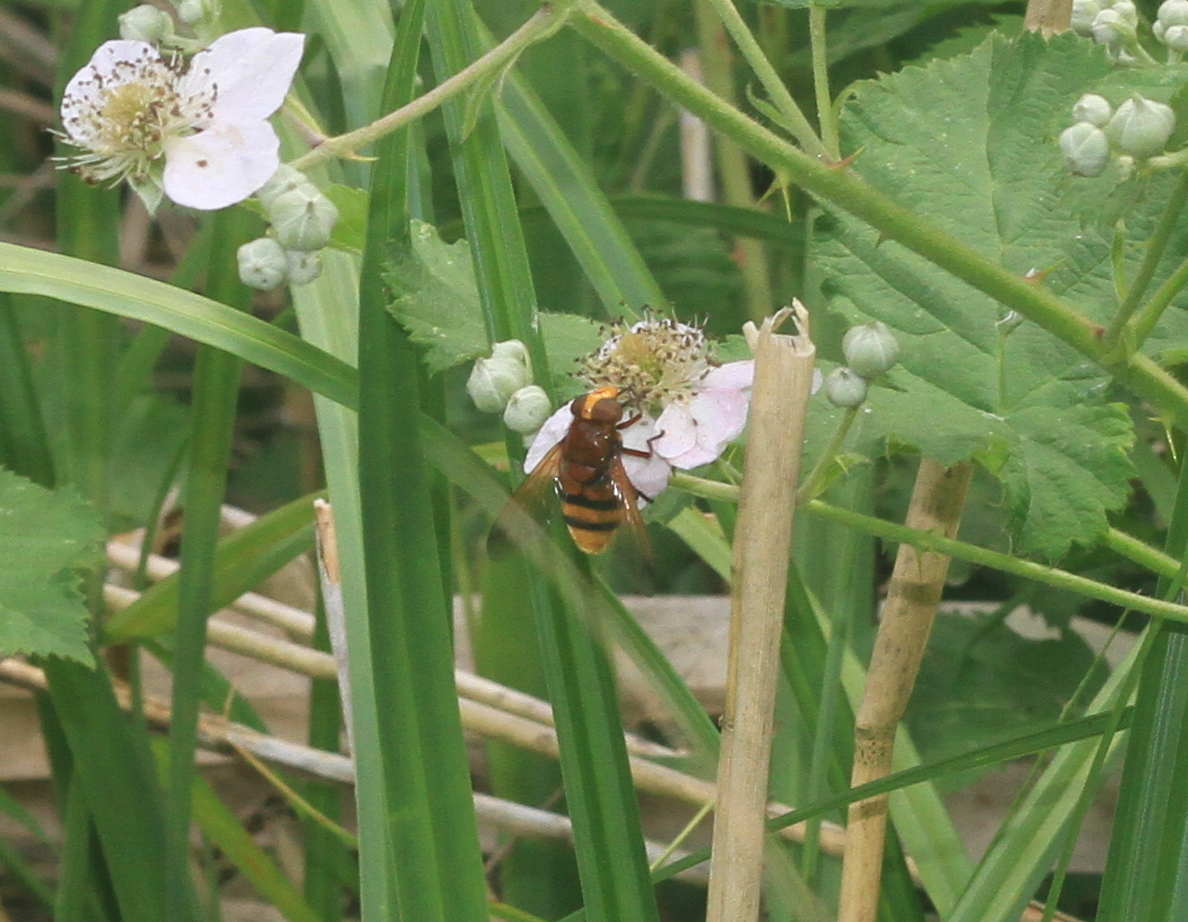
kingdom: Animalia
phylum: Arthropoda
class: Insecta
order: Diptera
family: Syrphidae
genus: Volucella
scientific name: Volucella zonaria
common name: Hornet hoverfly
